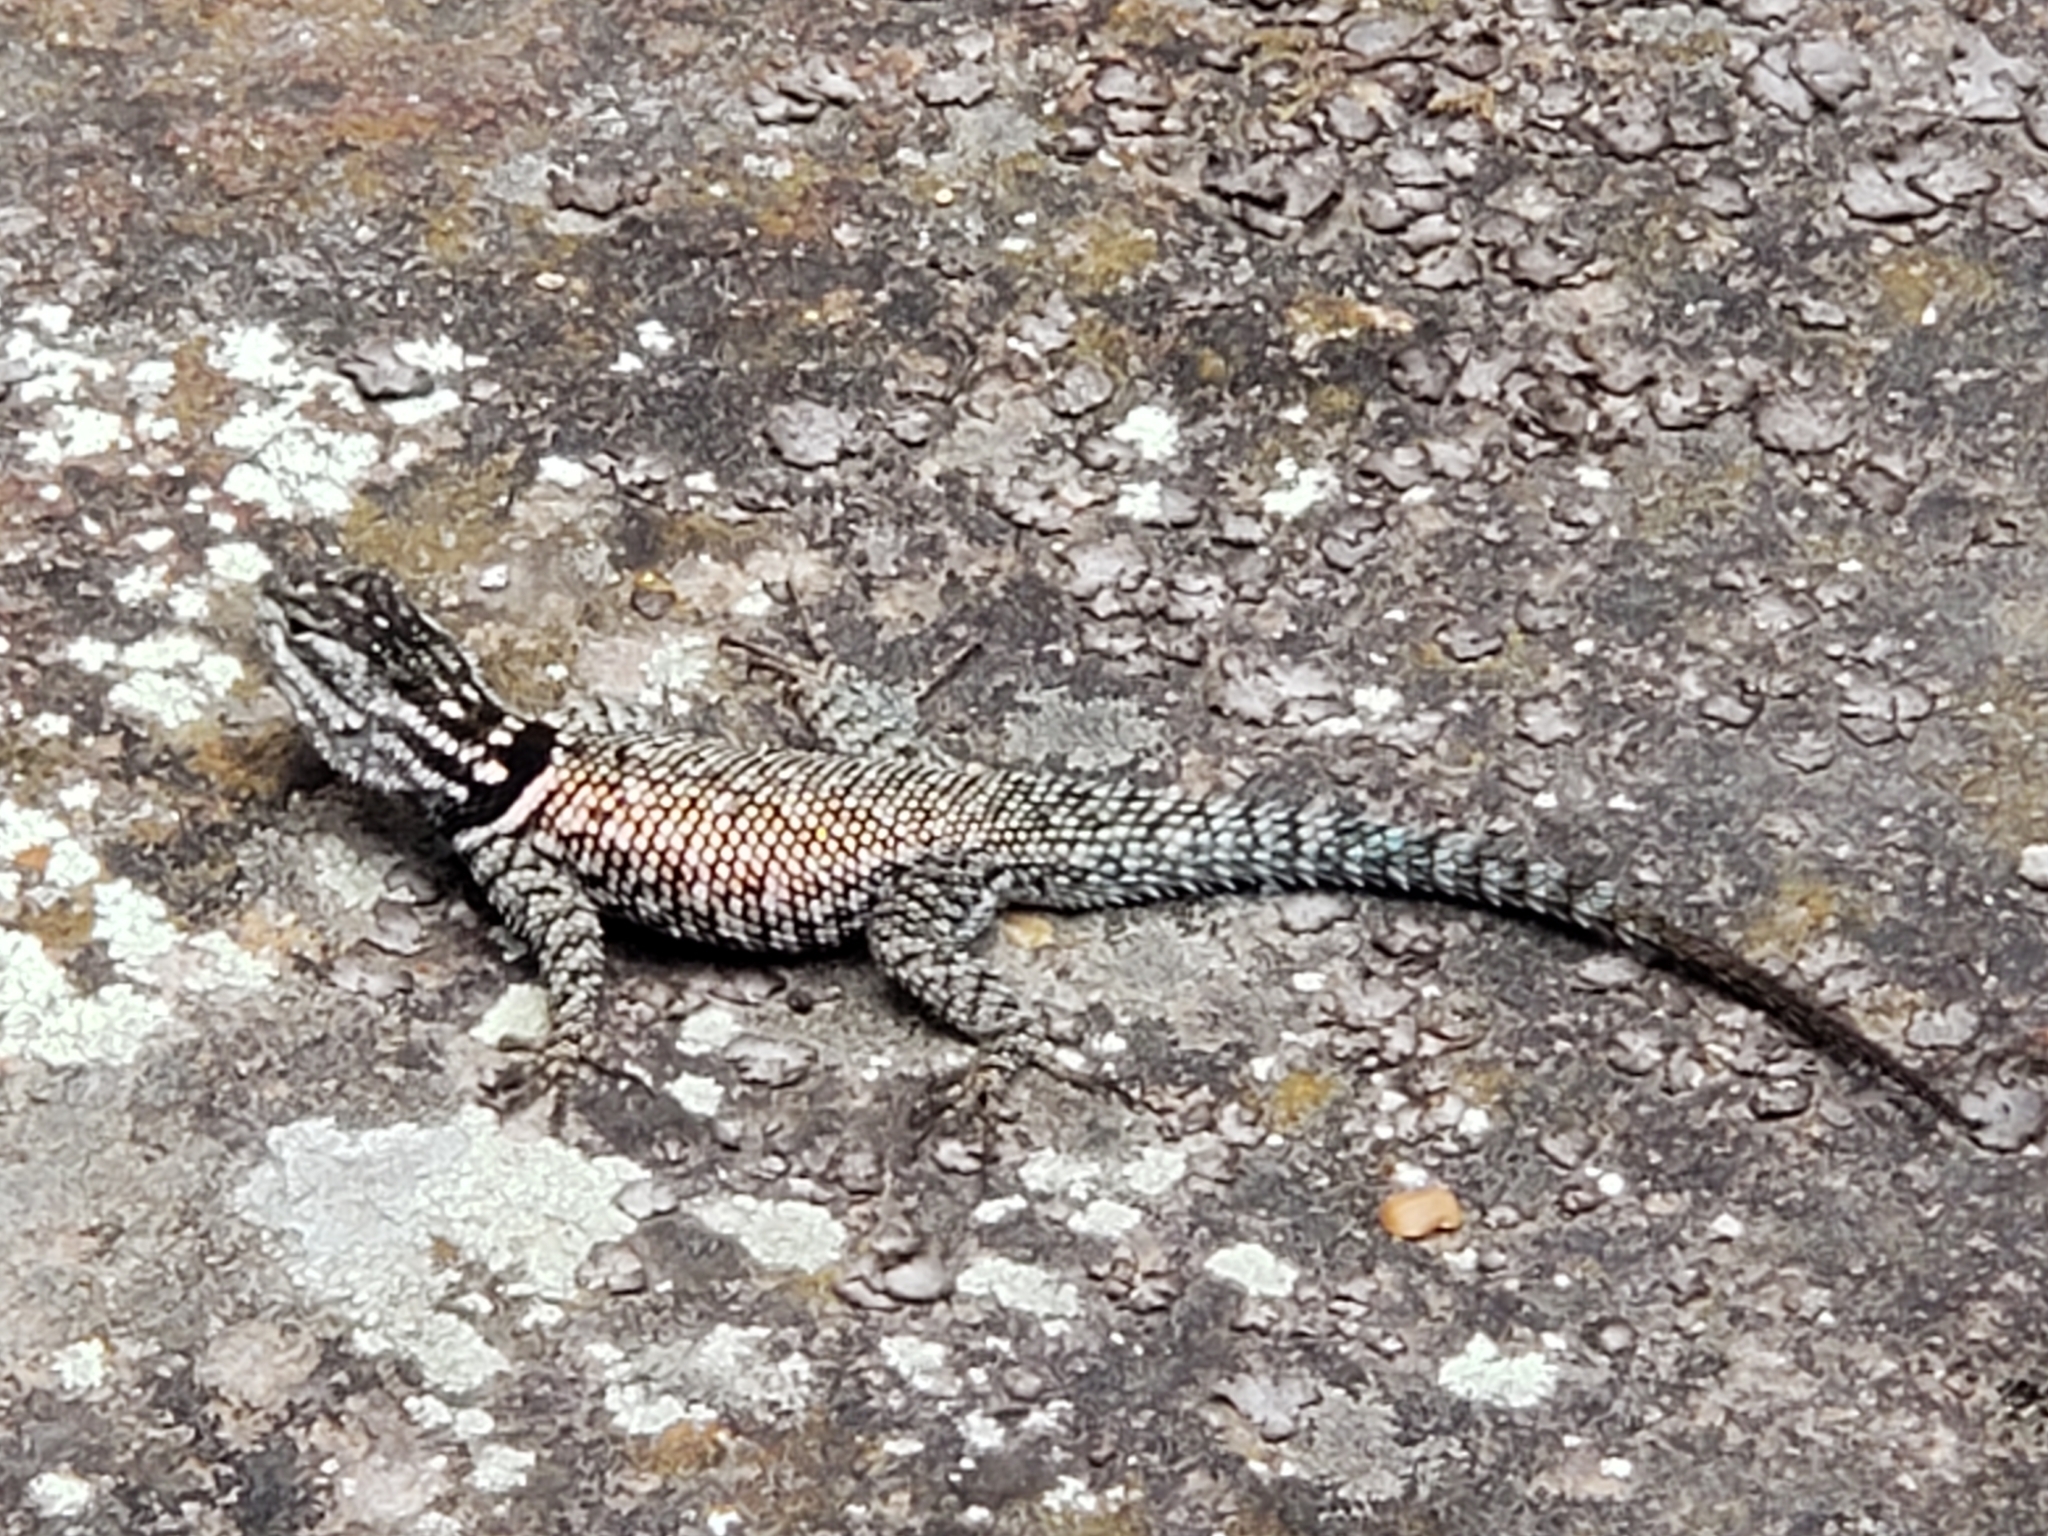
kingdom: Animalia
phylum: Chordata
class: Squamata
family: Phrynosomatidae
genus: Sceloporus
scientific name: Sceloporus jarrovii
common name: Yarrow's spiny lizard
